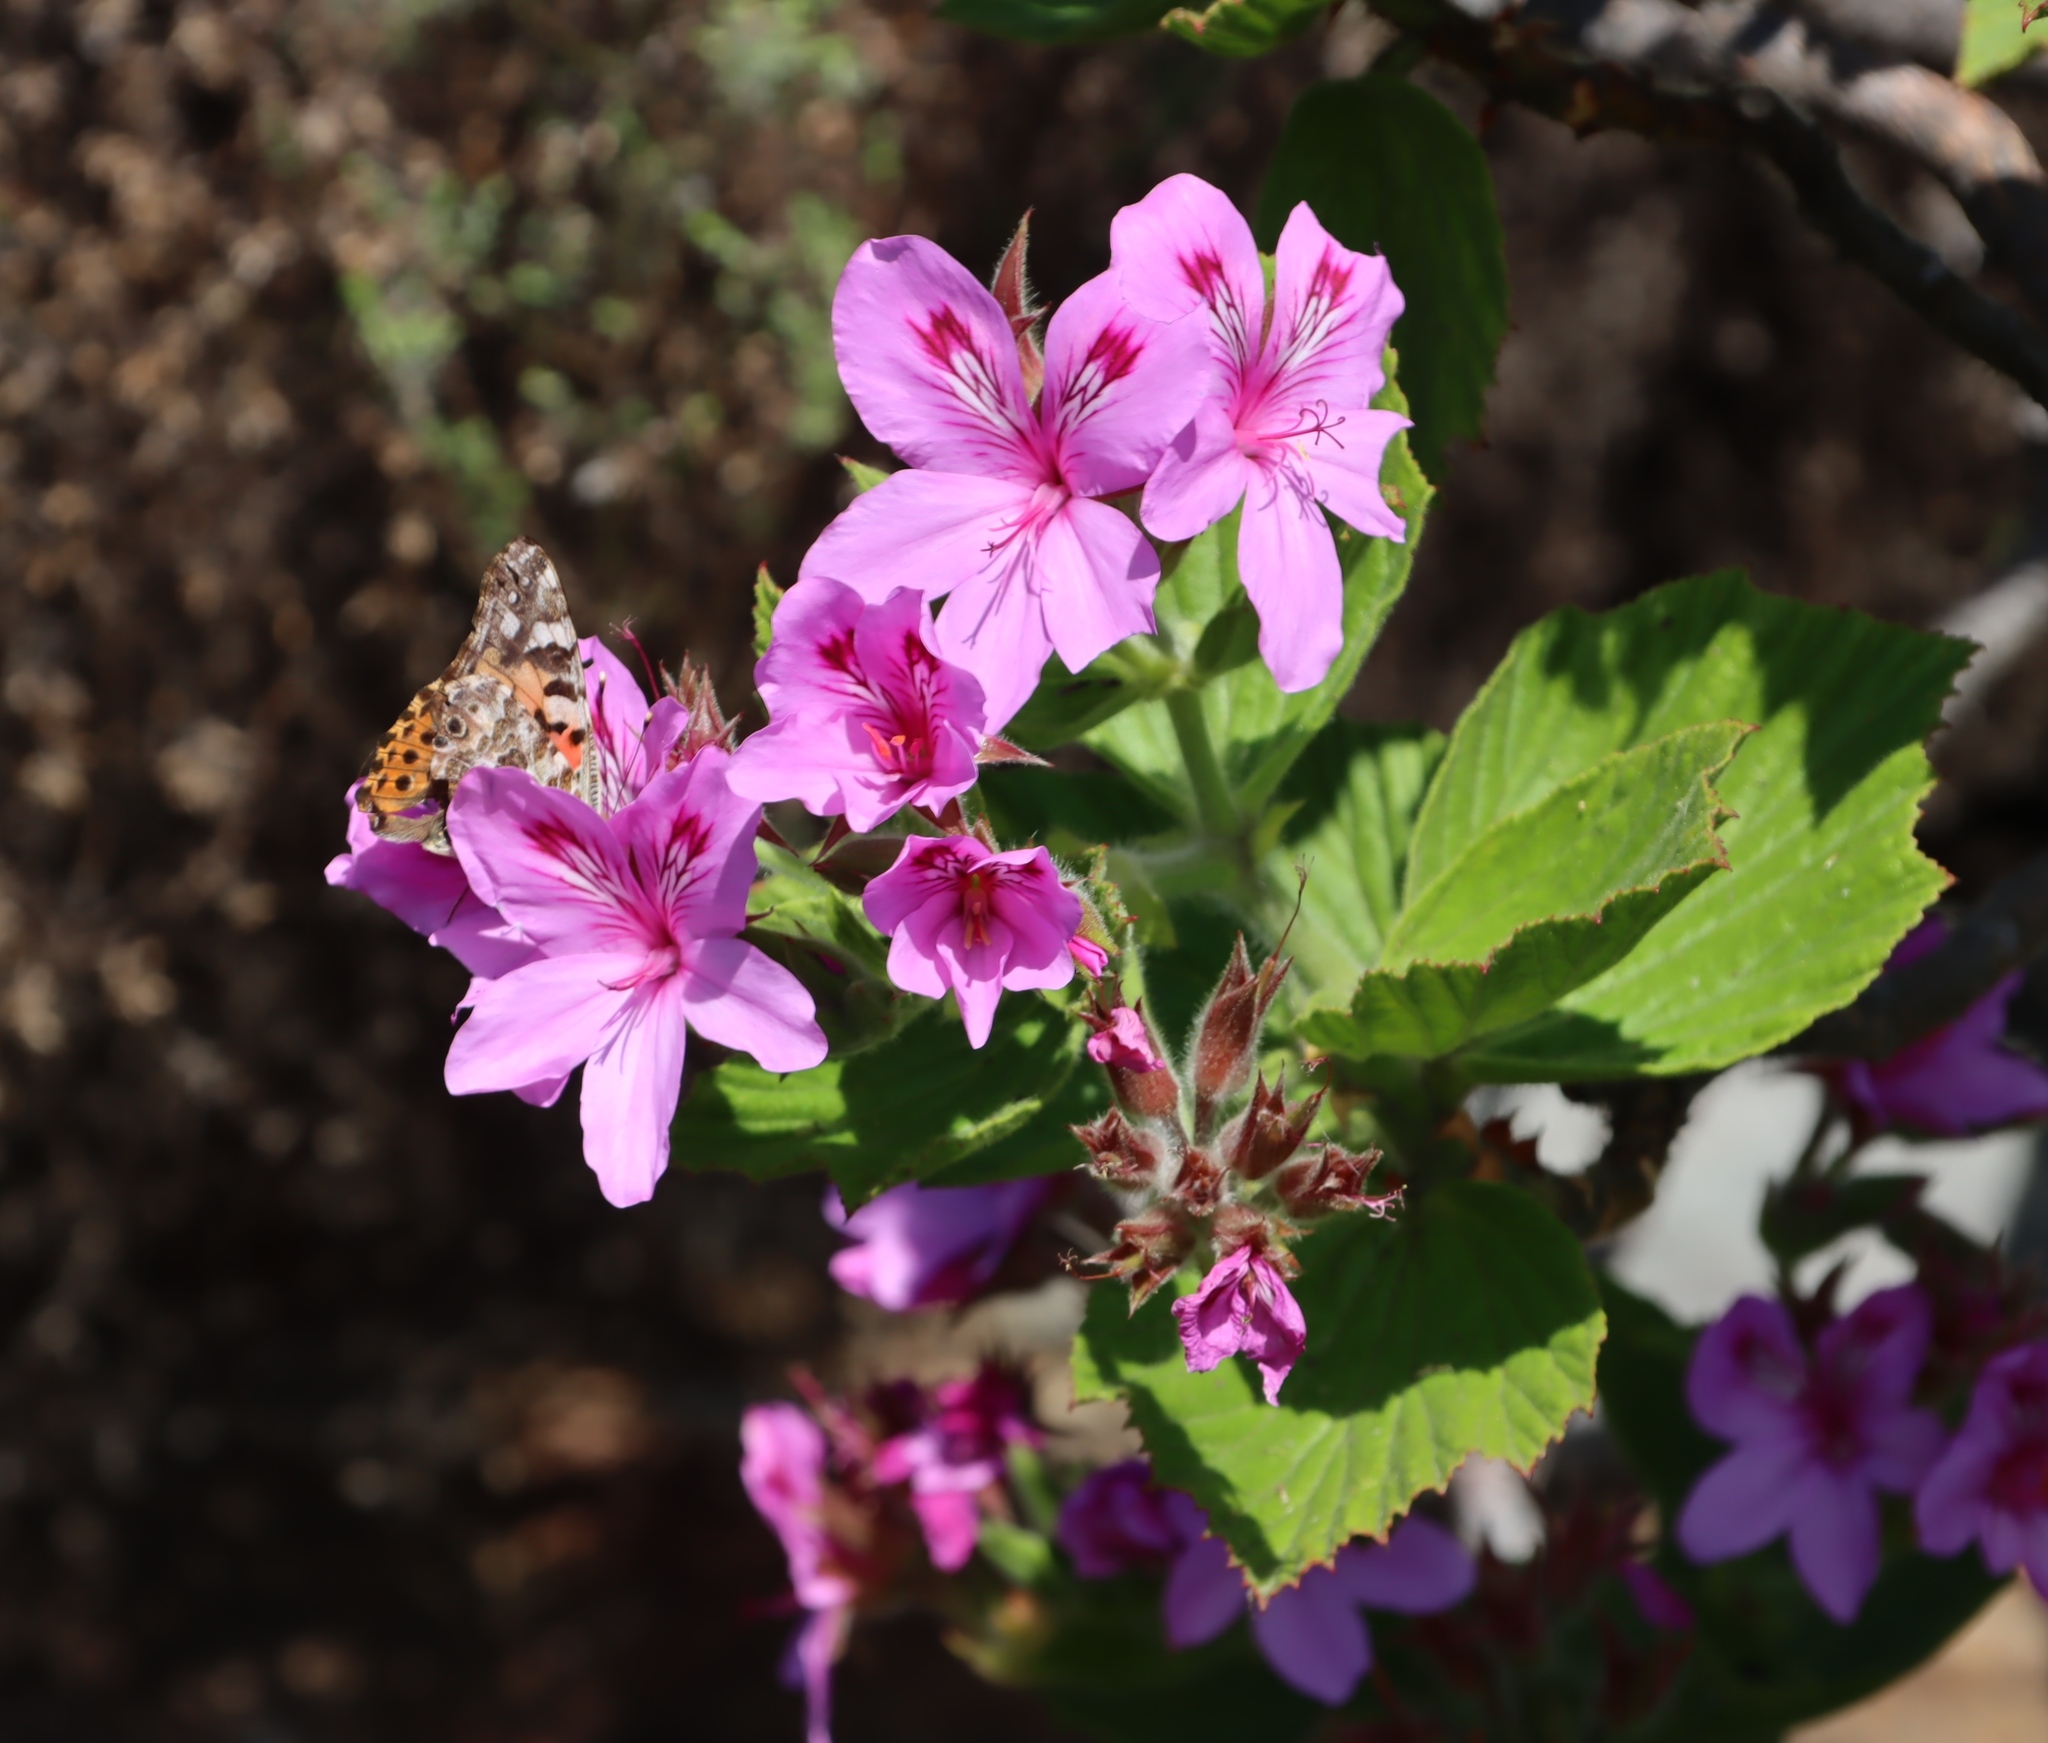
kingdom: Animalia
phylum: Arthropoda
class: Insecta
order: Lepidoptera
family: Nymphalidae
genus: Vanessa
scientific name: Vanessa cardui
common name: Painted lady
